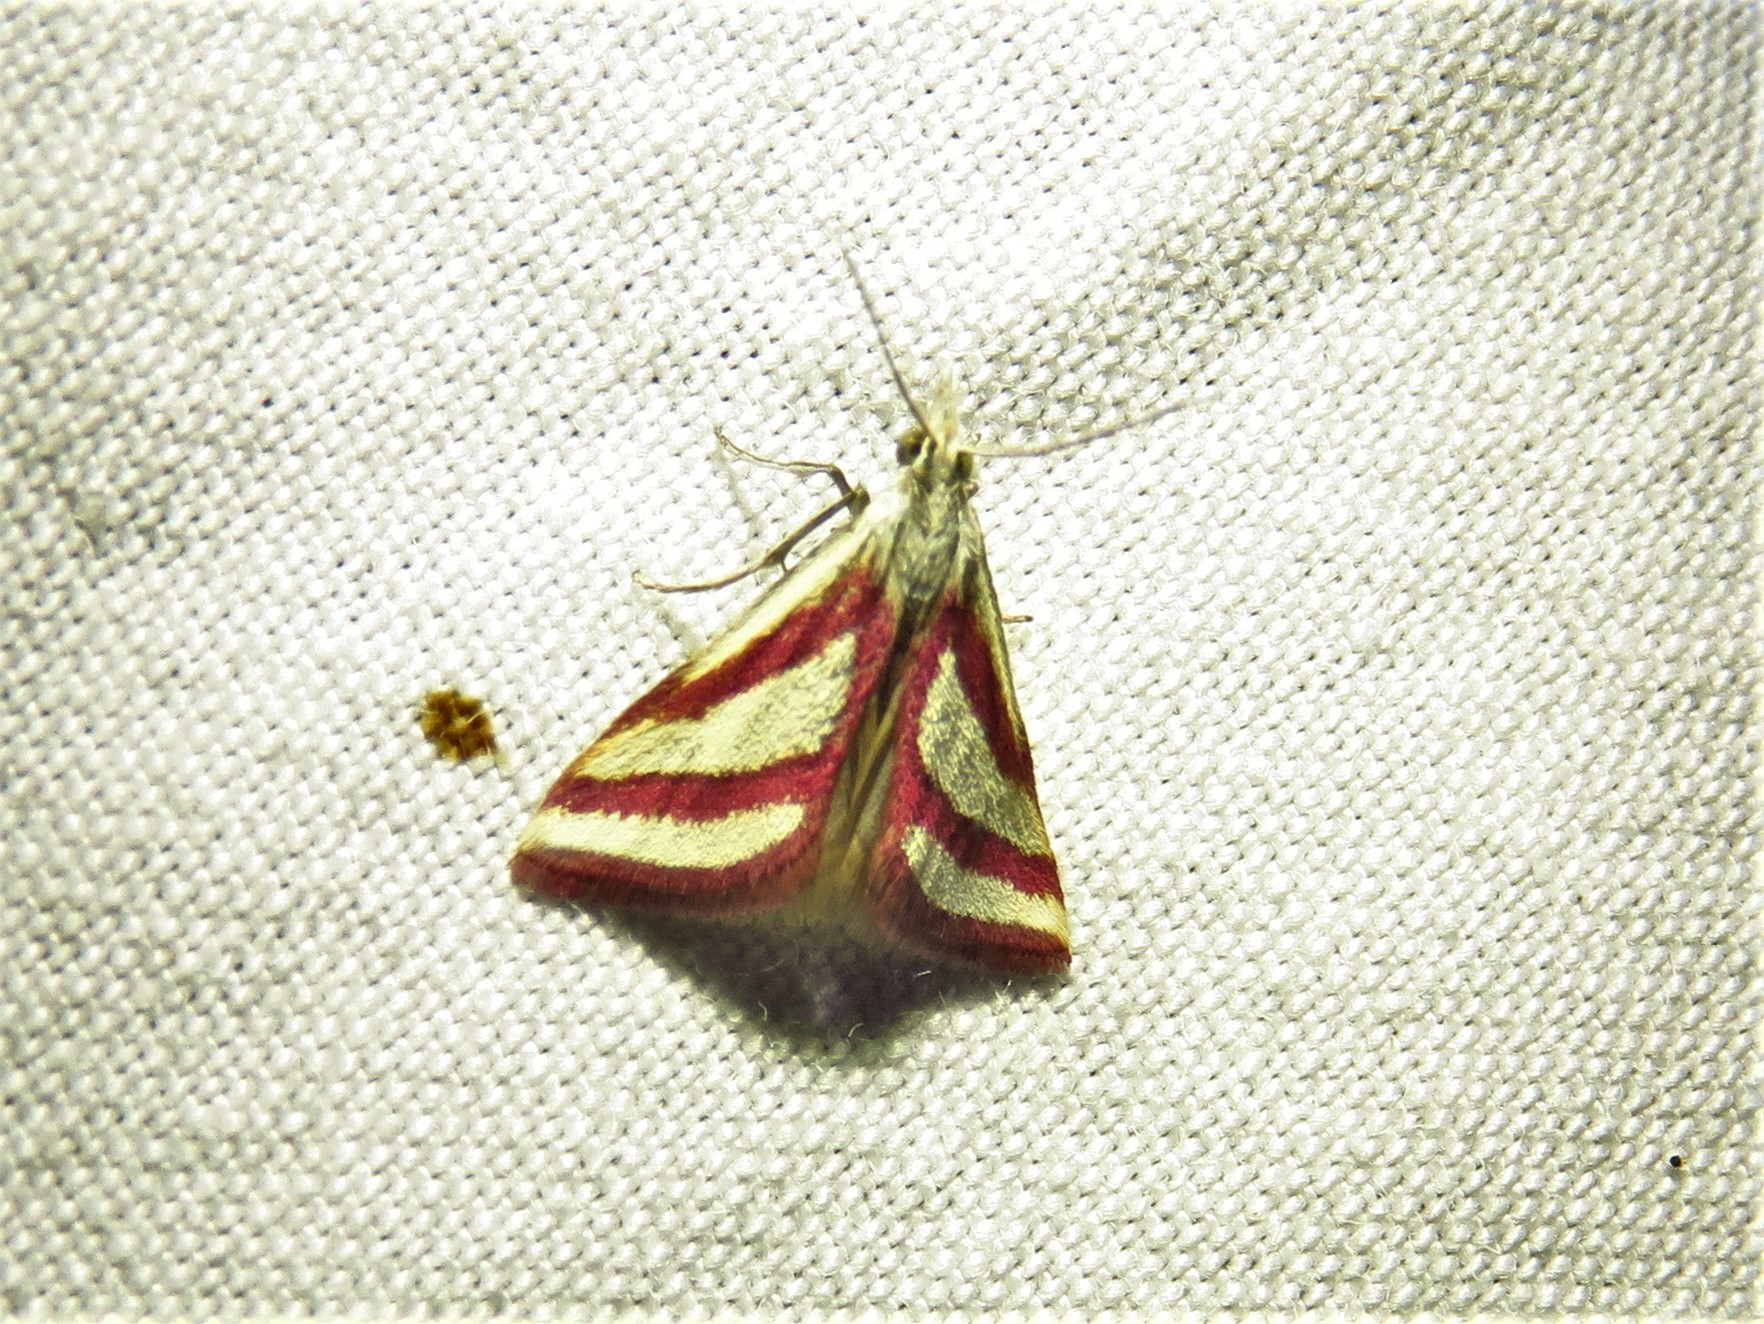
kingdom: Animalia
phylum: Arthropoda
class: Insecta
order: Lepidoptera
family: Crambidae
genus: Microtheoris
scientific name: Microtheoris vibicalis
